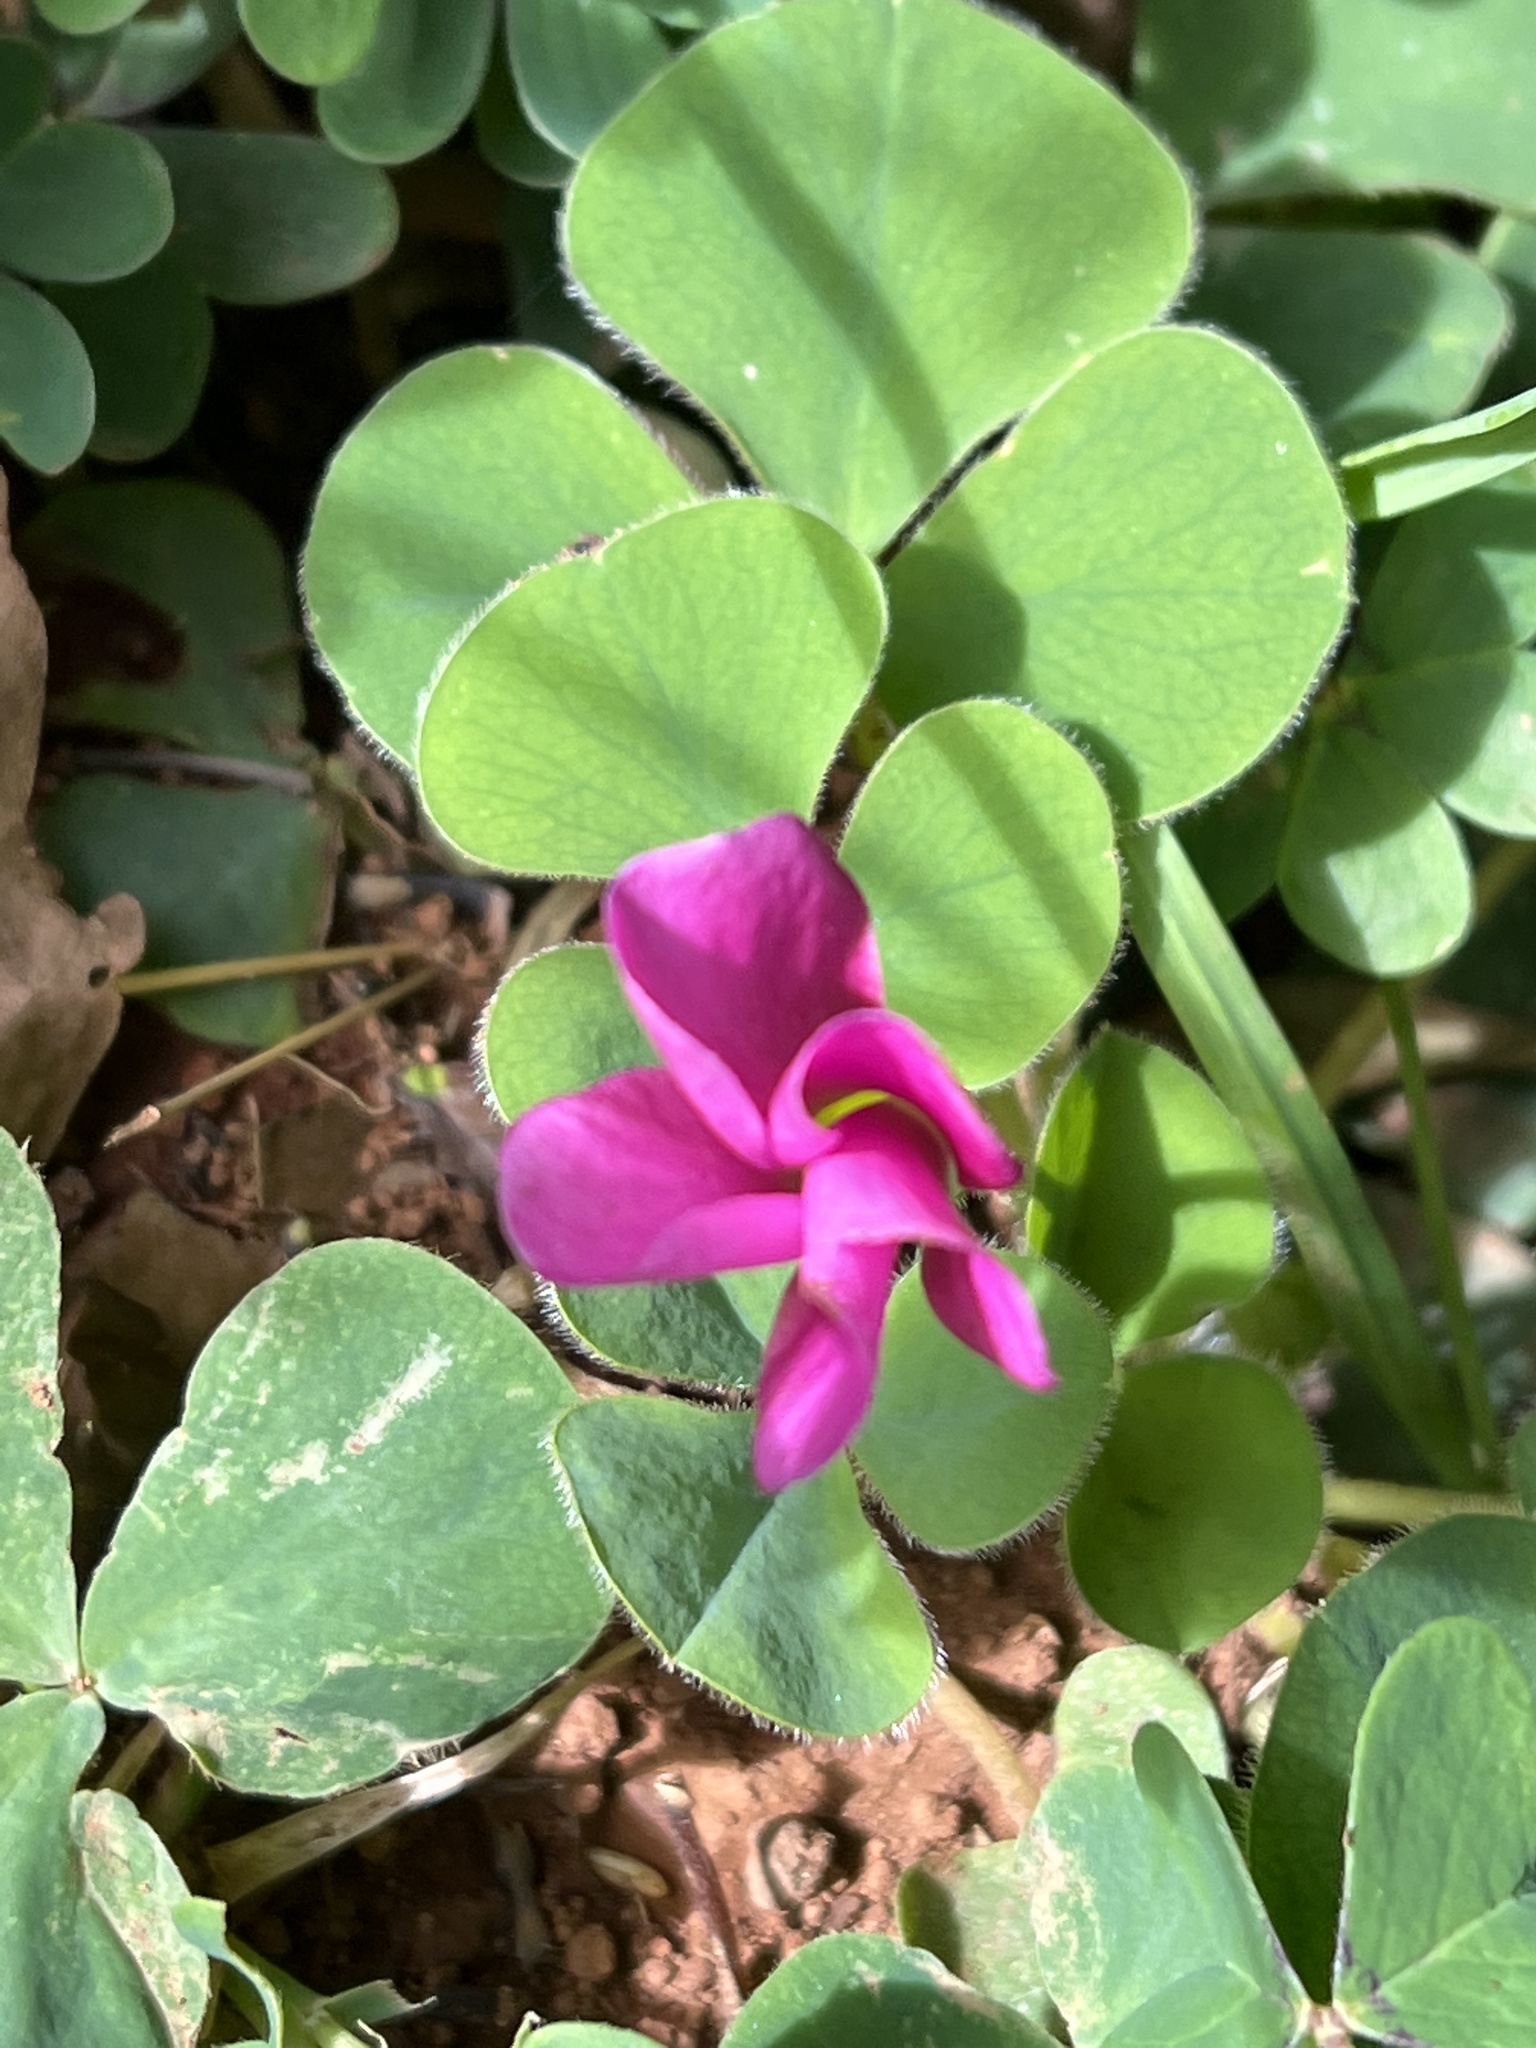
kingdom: Plantae
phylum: Tracheophyta
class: Magnoliopsida
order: Oxalidales
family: Oxalidaceae
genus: Oxalis
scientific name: Oxalis purpurea
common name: Purple woodsorrel
